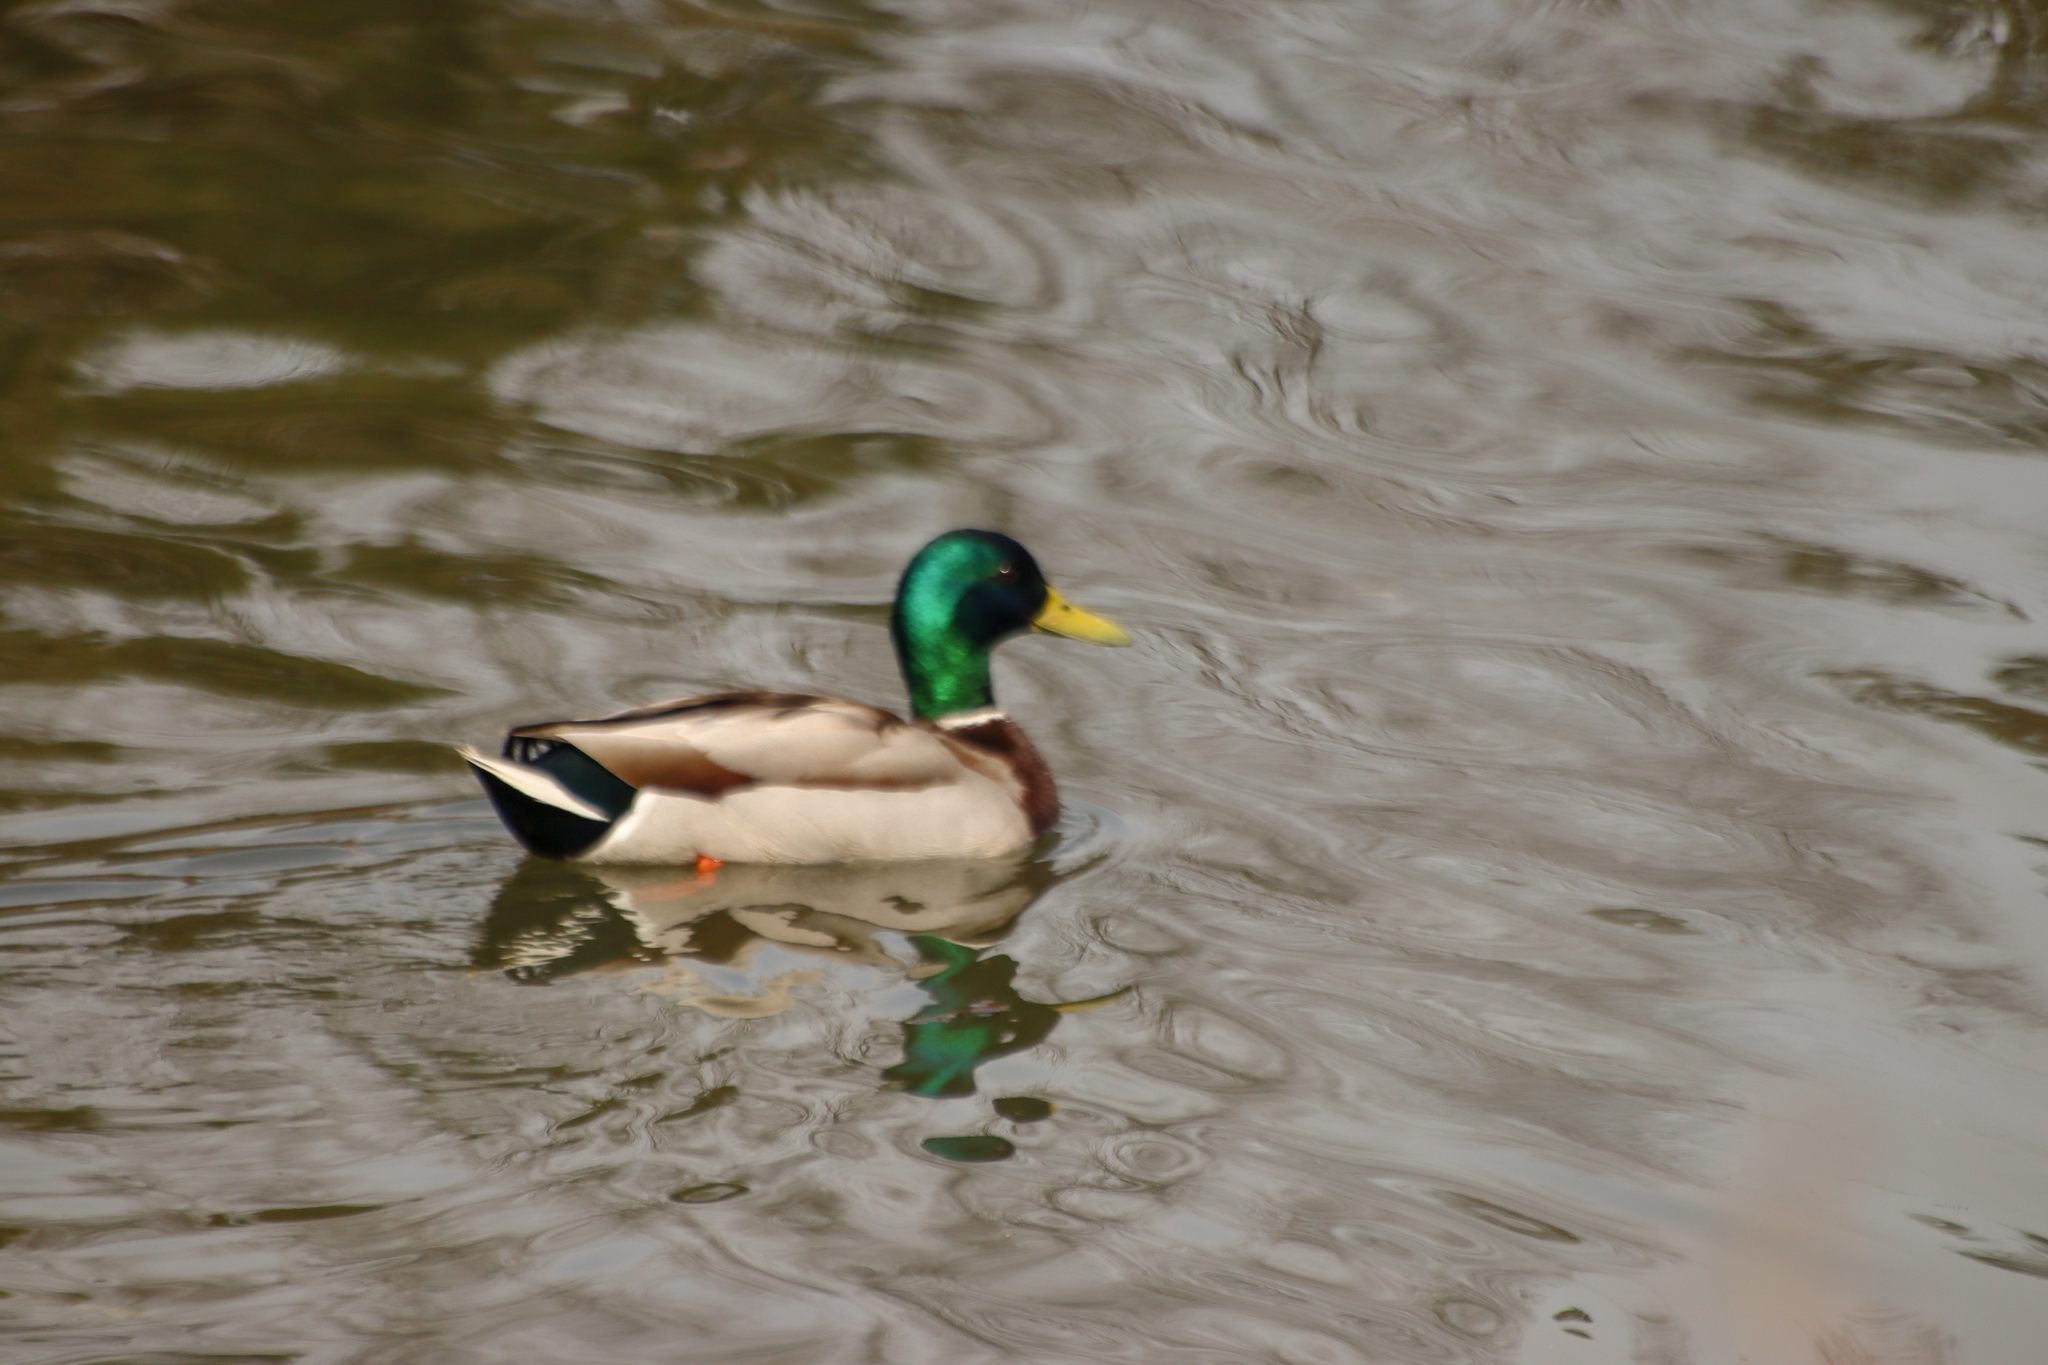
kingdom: Animalia
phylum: Chordata
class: Aves
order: Anseriformes
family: Anatidae
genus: Anas
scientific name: Anas platyrhynchos
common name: Mallard
